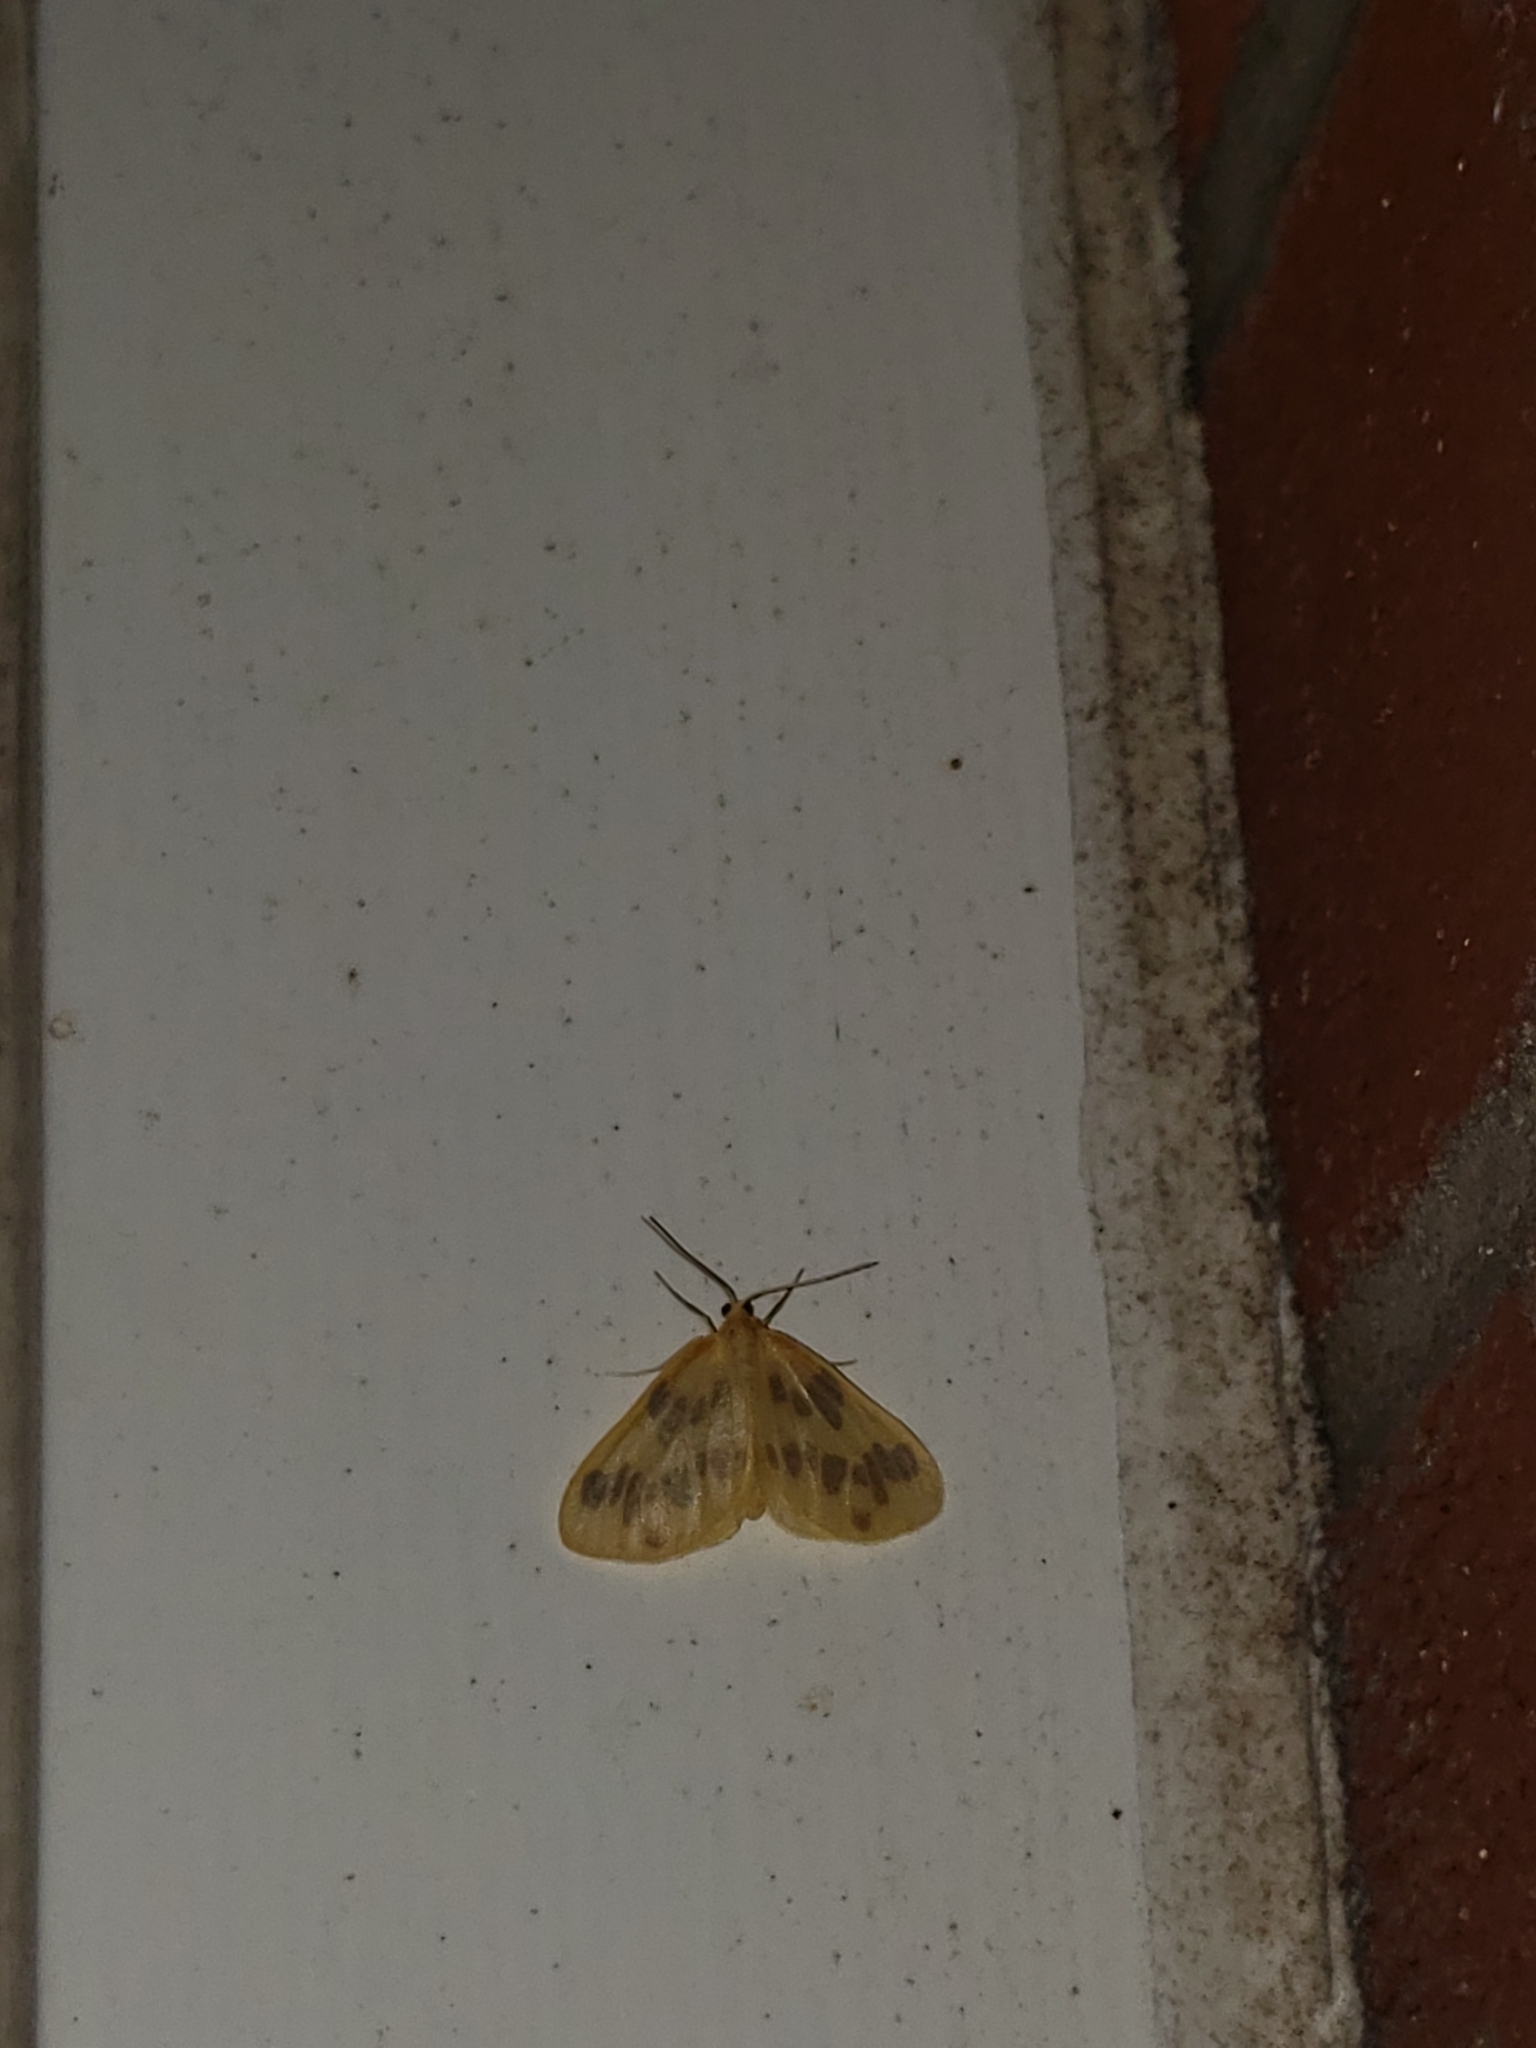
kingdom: Animalia
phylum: Arthropoda
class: Insecta
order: Lepidoptera
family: Geometridae
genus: Eubaphe
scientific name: Eubaphe mendica
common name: Beggar
